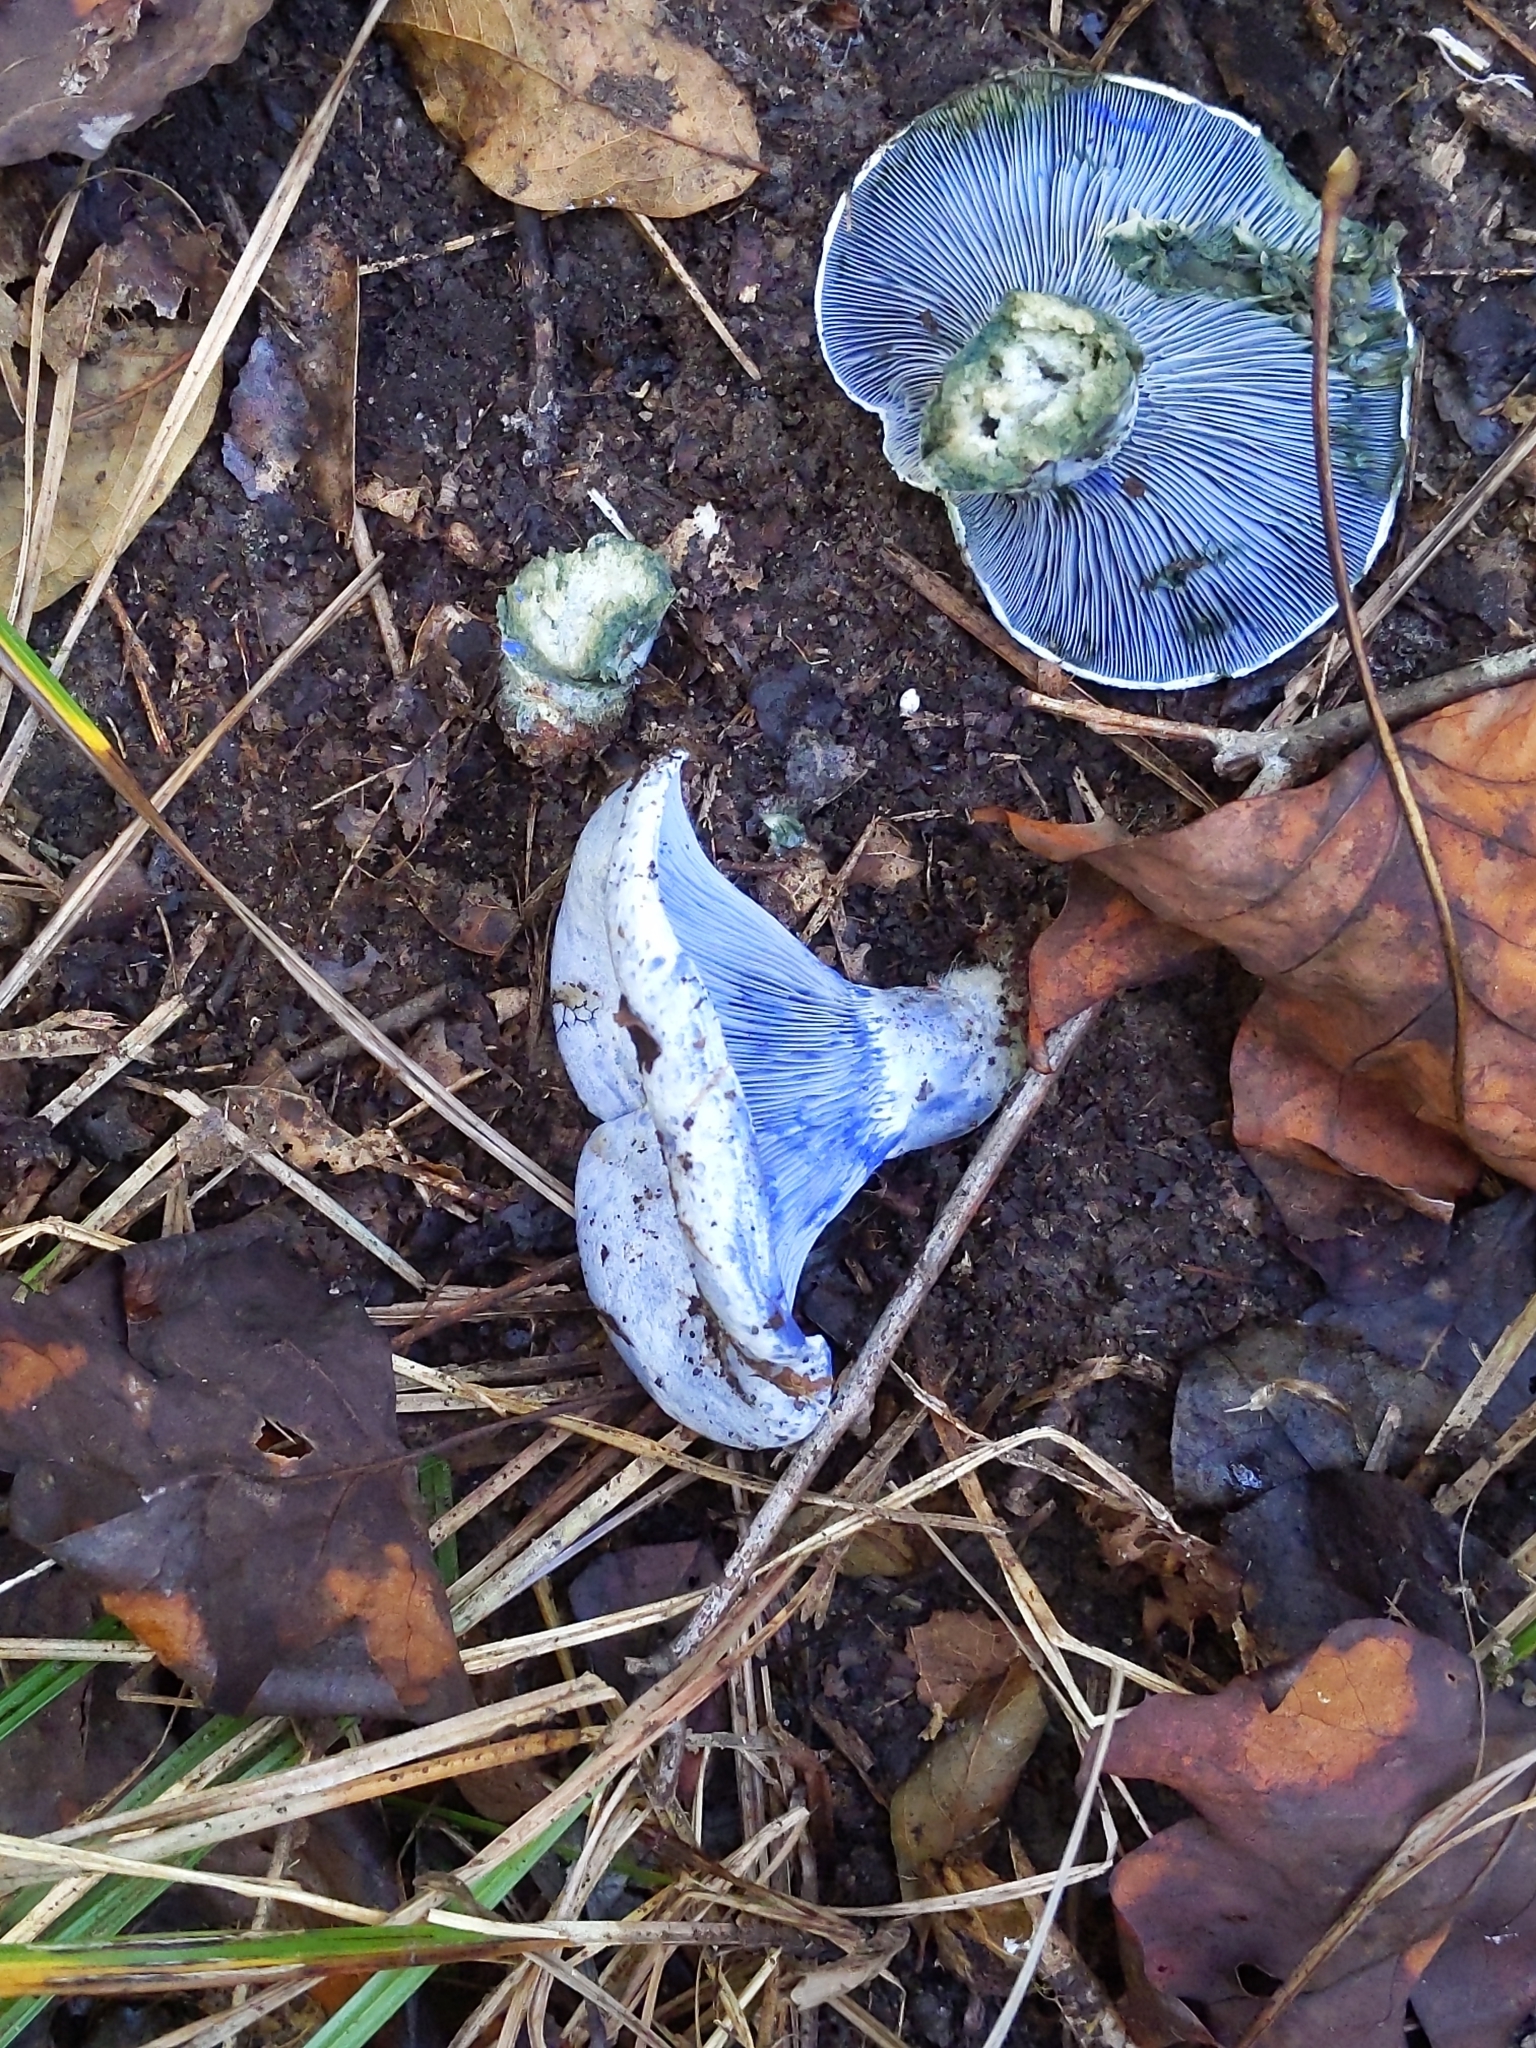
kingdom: Fungi
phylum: Basidiomycota
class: Agaricomycetes
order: Russulales
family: Russulaceae
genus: Lactarius
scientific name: Lactarius indigo
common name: Indigo milk cap
